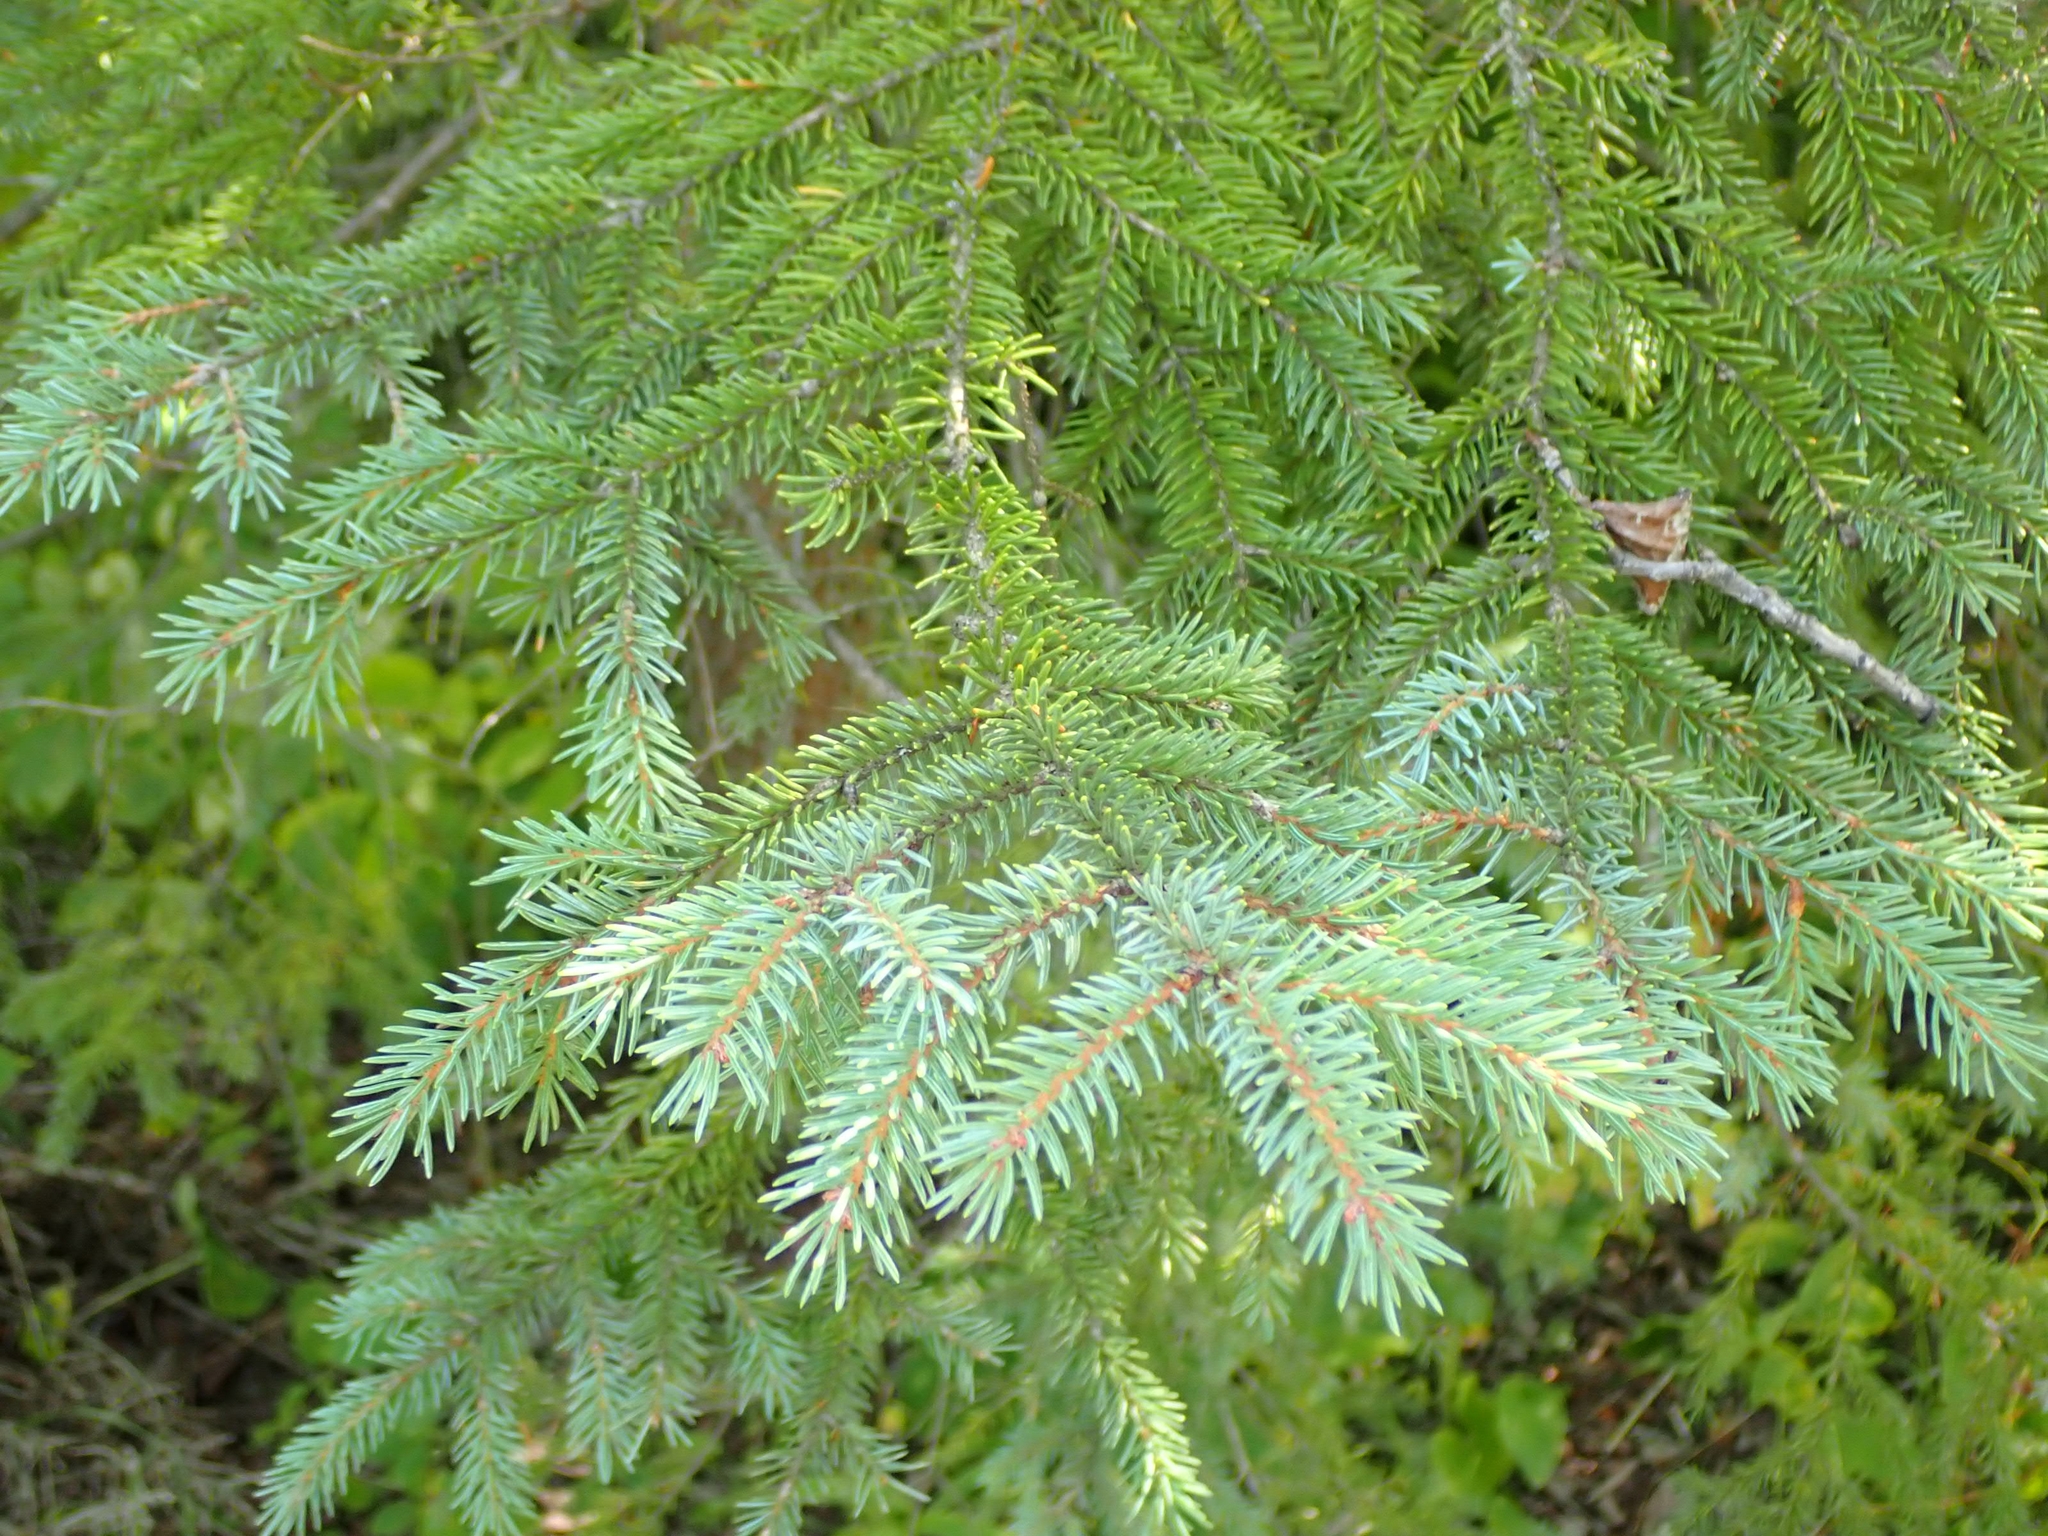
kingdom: Plantae
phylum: Tracheophyta
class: Pinopsida
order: Pinales
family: Pinaceae
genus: Picea
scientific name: Picea glauca
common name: White spruce
